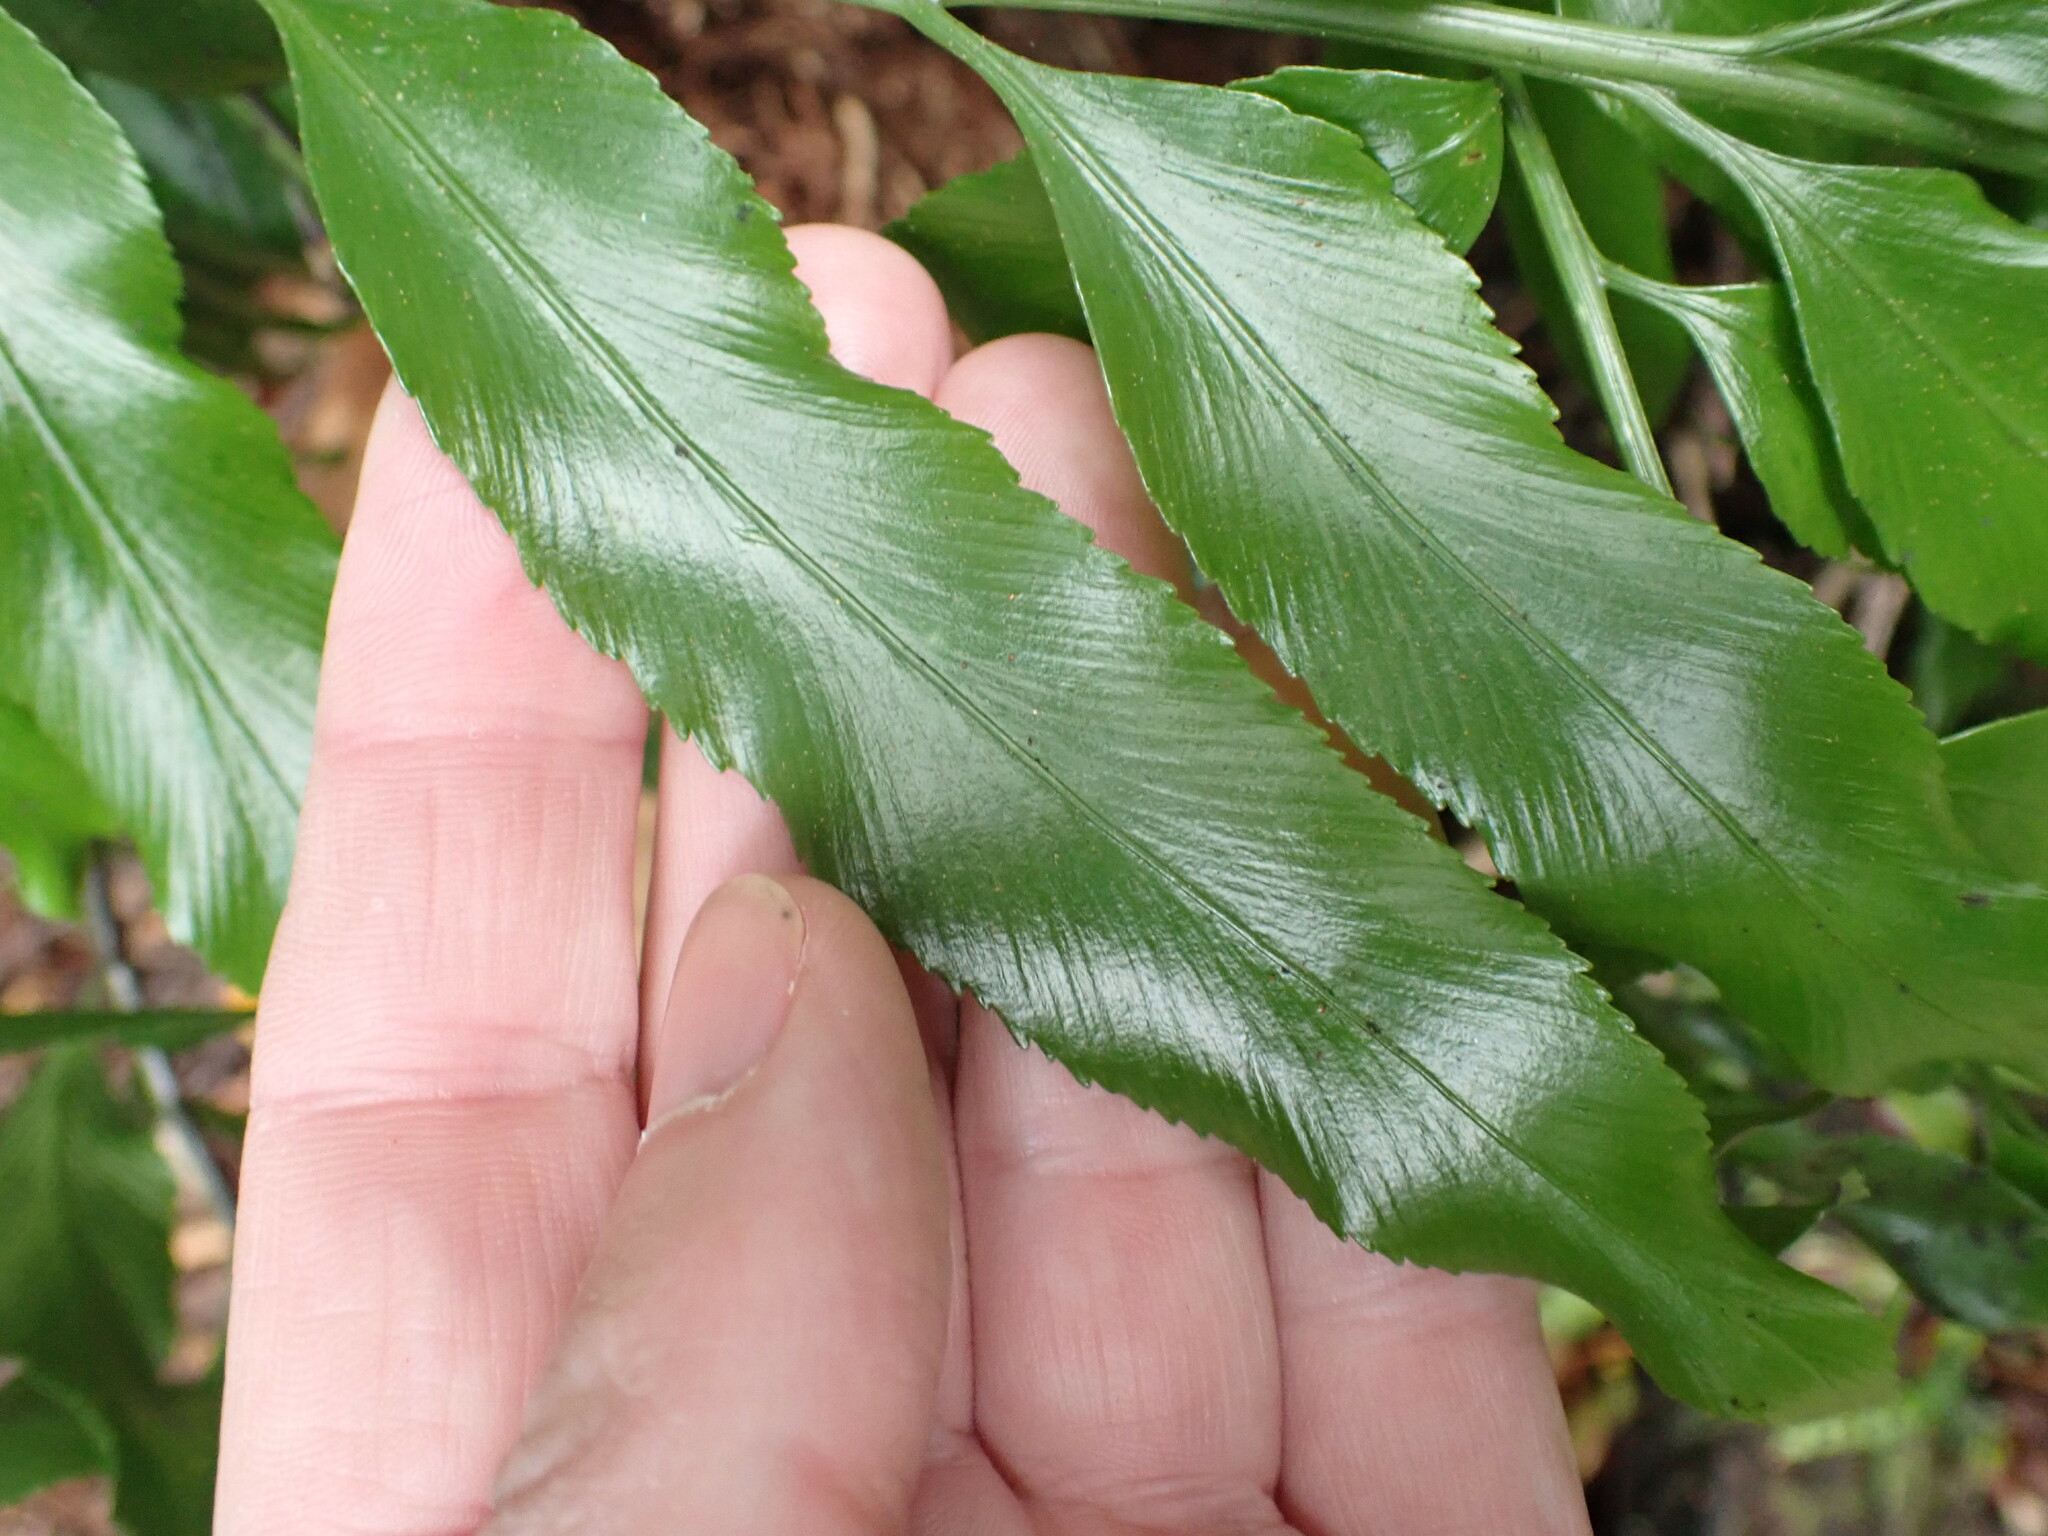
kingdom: Plantae
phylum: Tracheophyta
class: Polypodiopsida
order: Polypodiales
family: Aspleniaceae
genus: Asplenium
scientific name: Asplenium oblongifolium
